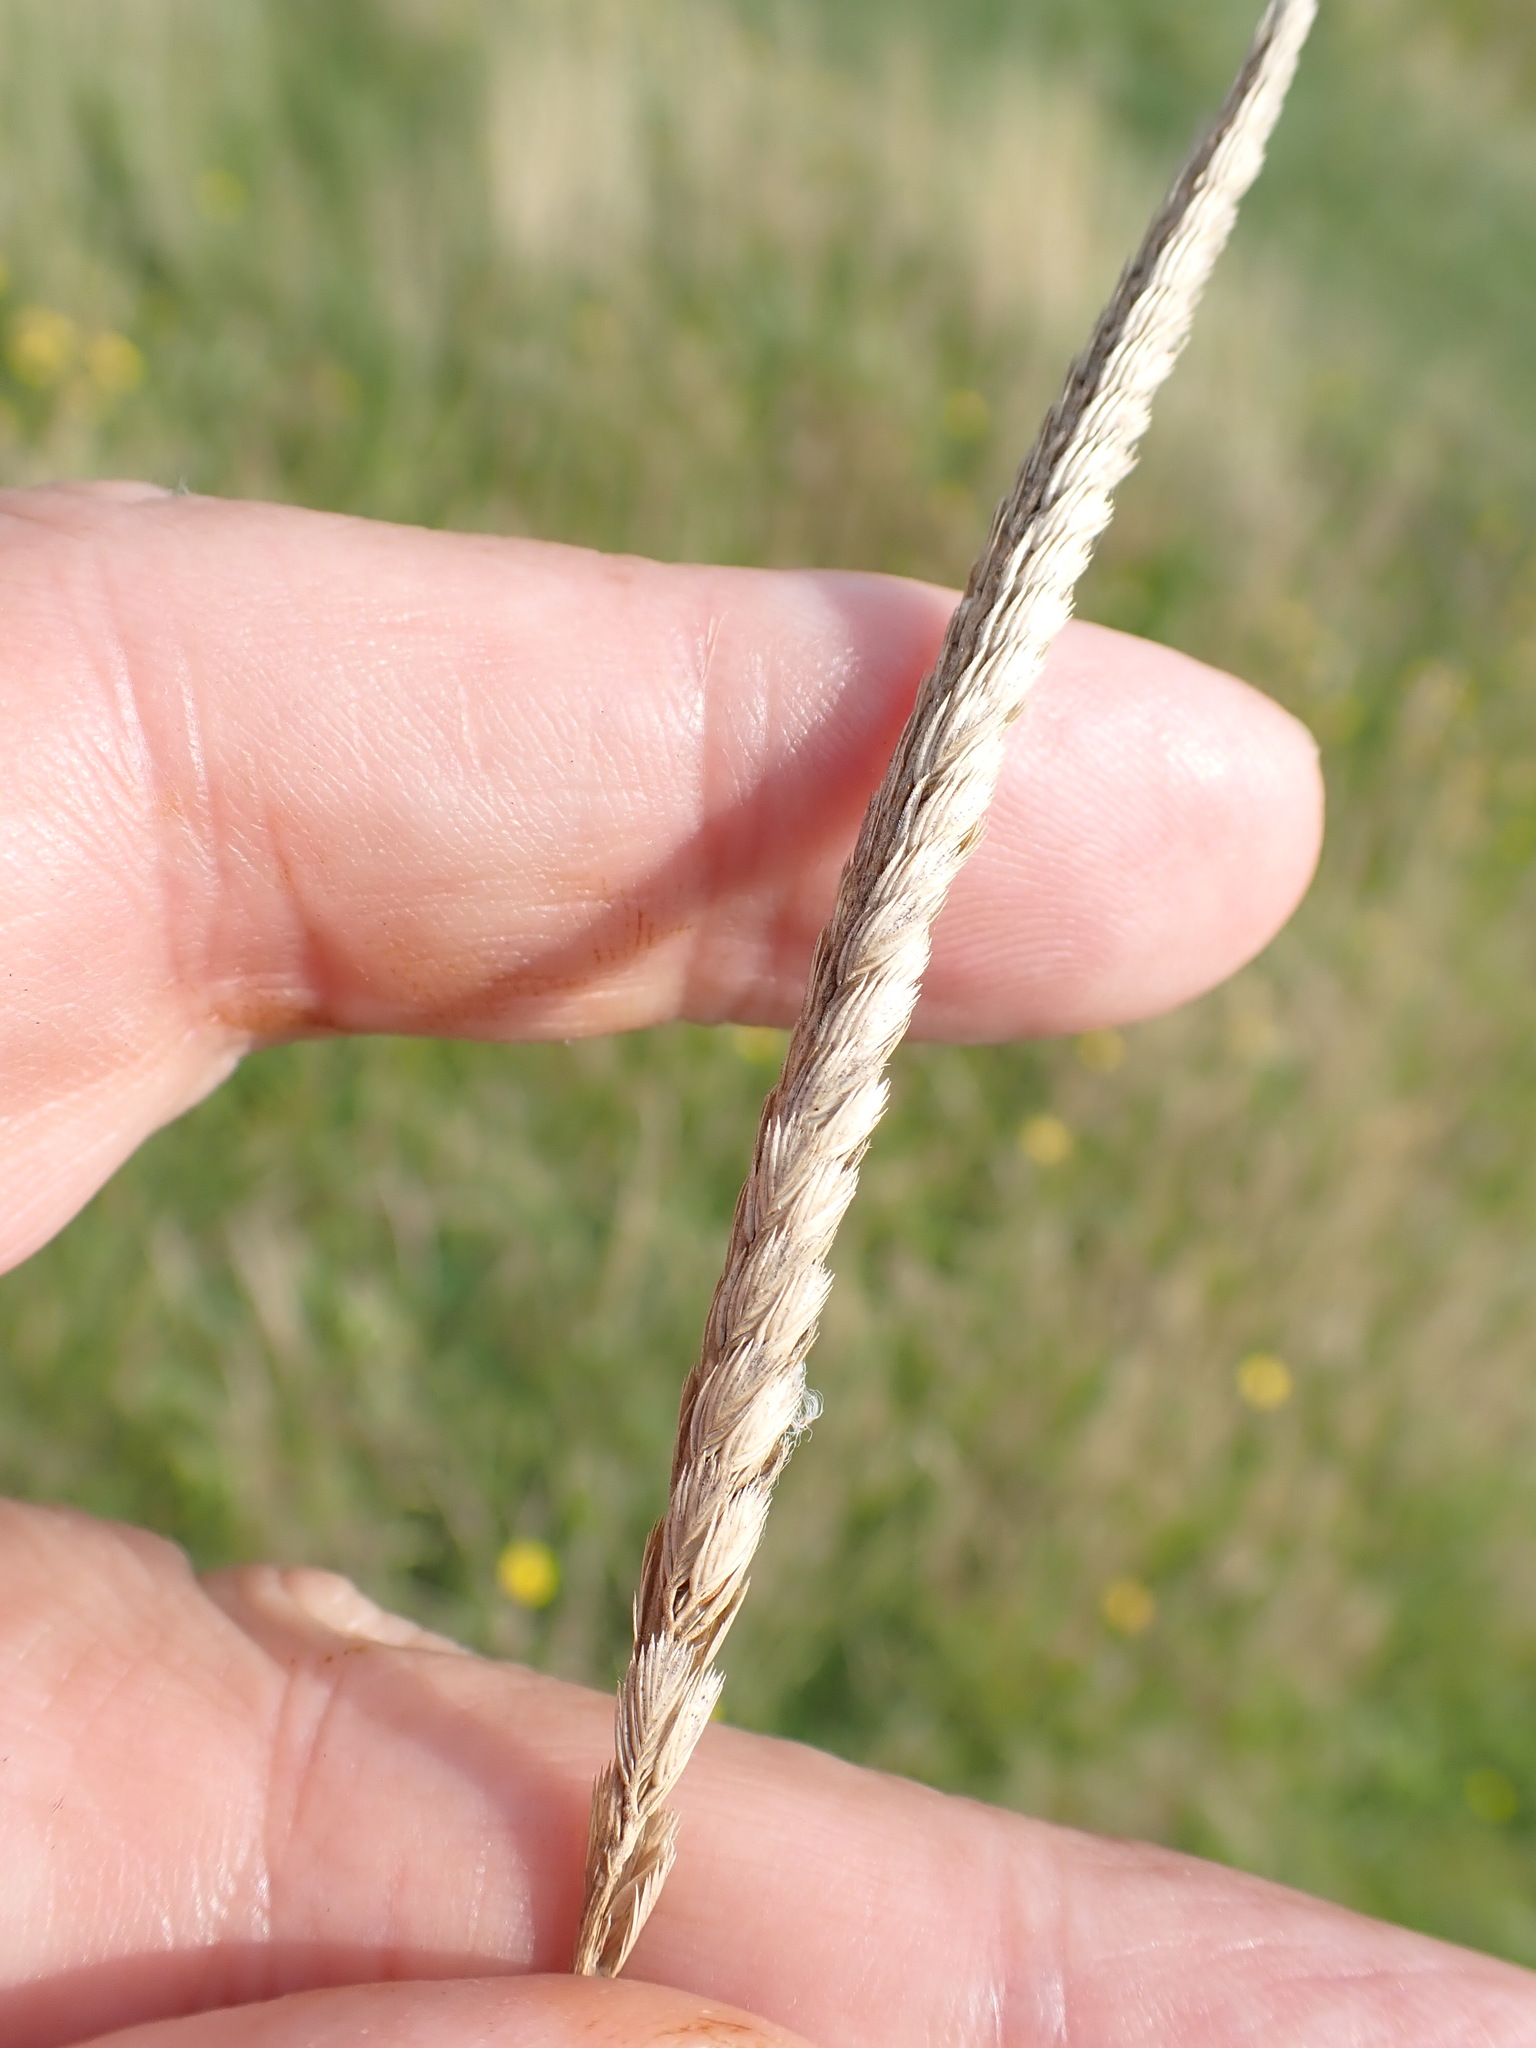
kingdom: Plantae
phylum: Tracheophyta
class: Liliopsida
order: Poales
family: Poaceae
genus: Cynosurus
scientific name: Cynosurus cristatus
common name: Crested dog's-tail
